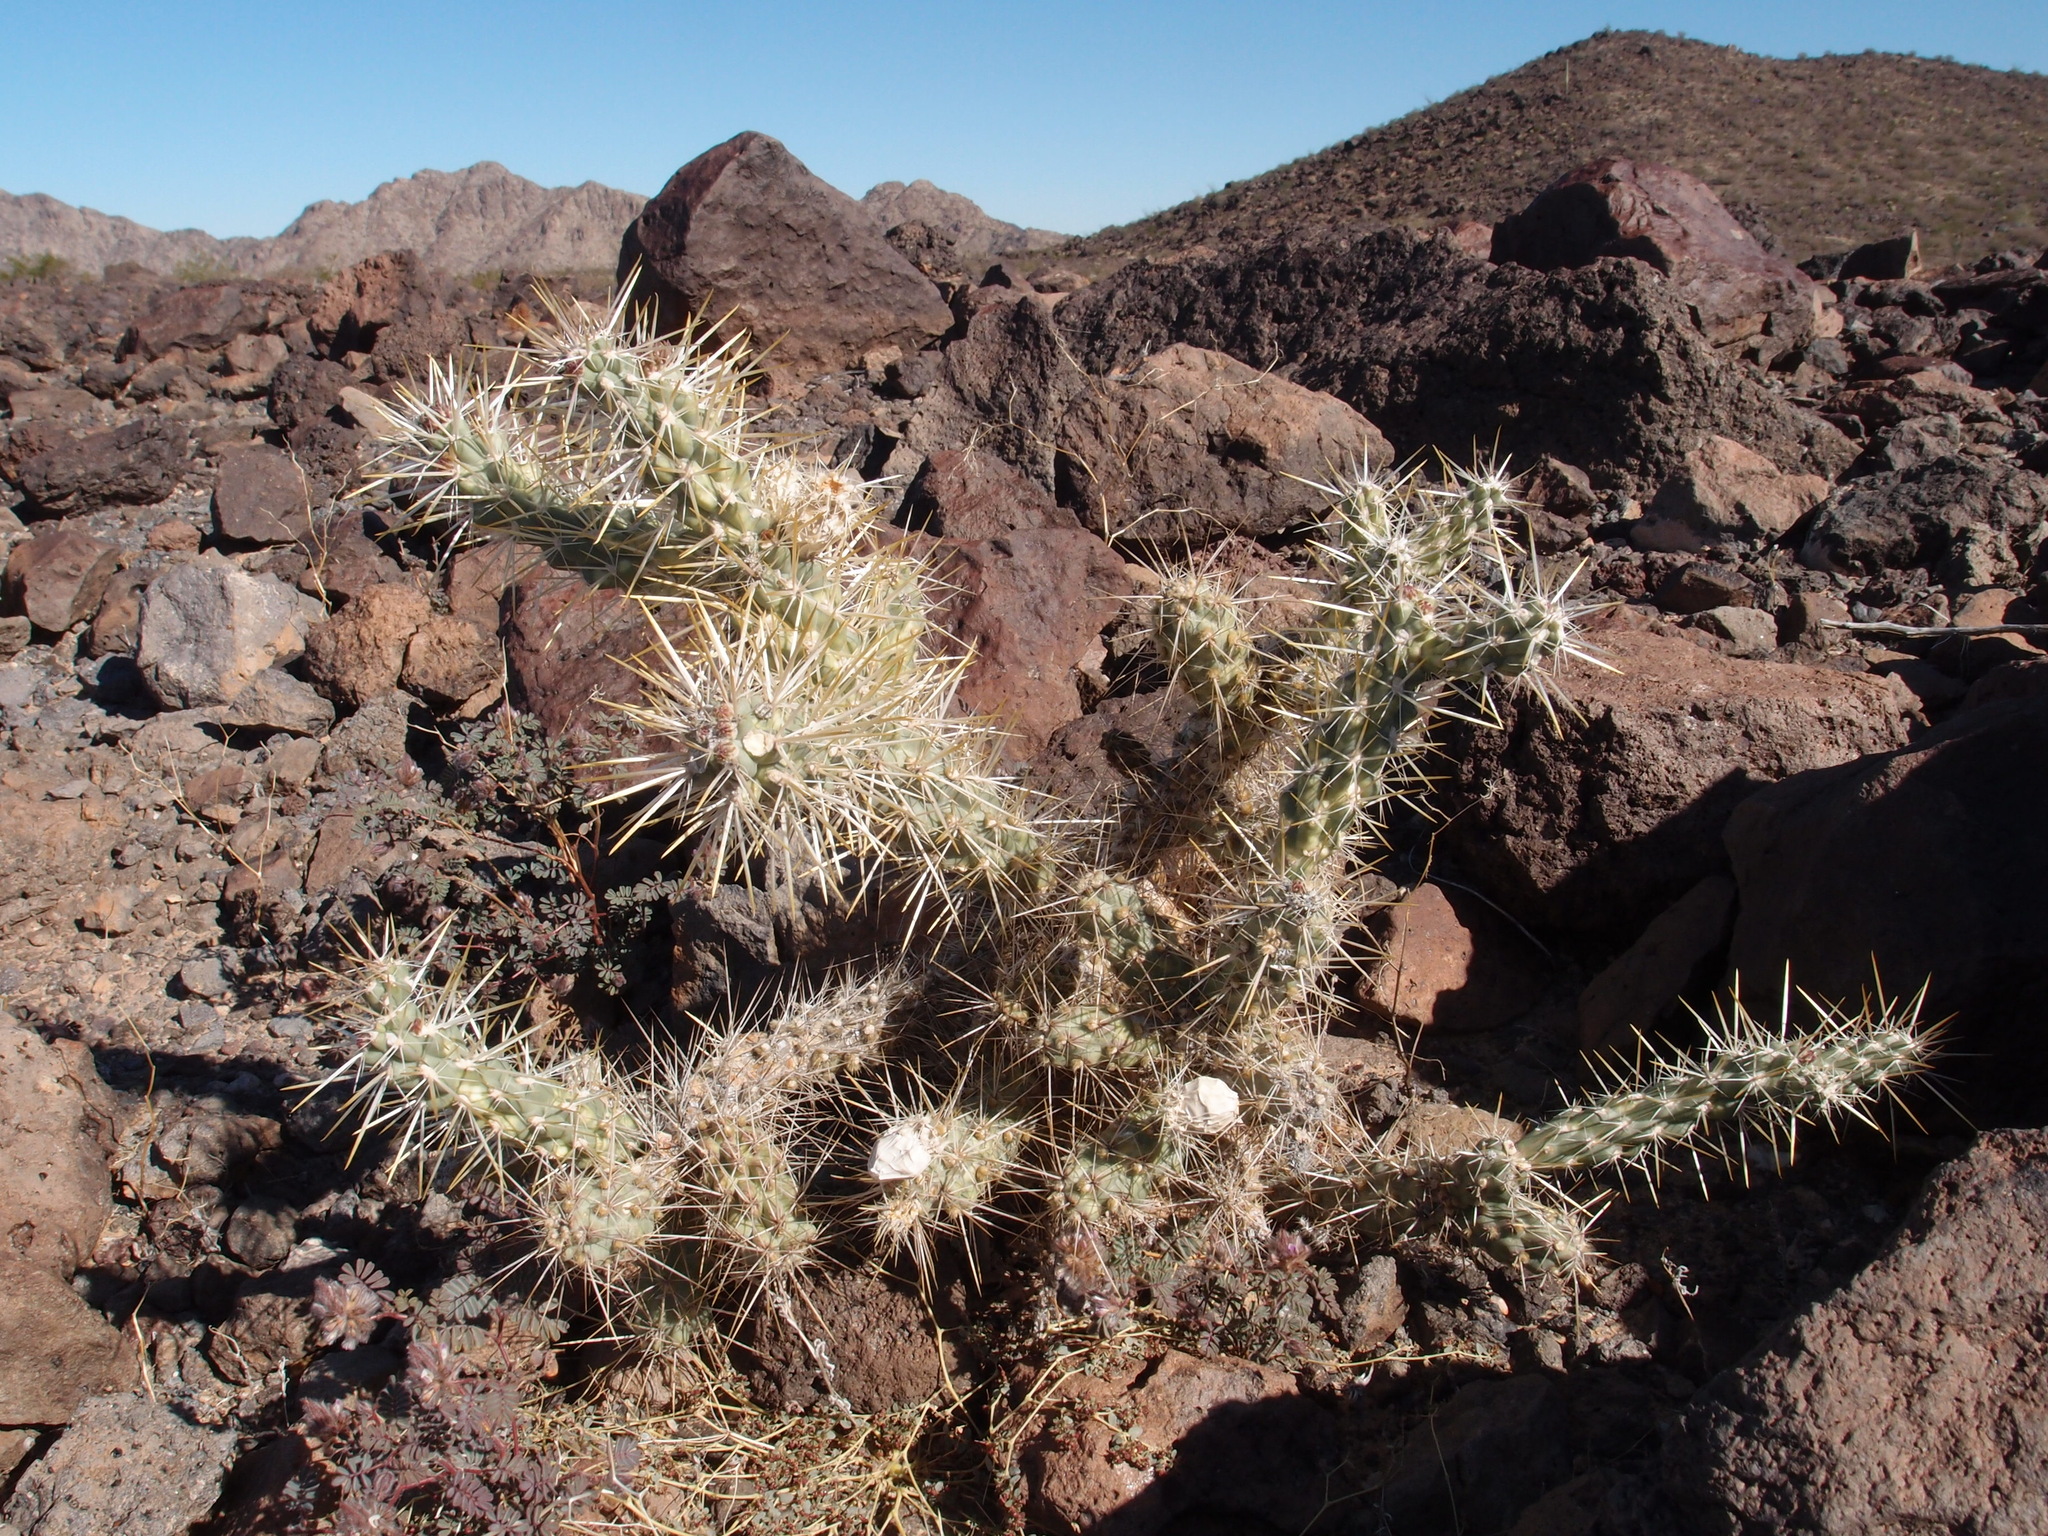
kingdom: Plantae
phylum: Tracheophyta
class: Magnoliopsida
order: Caryophyllales
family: Cactaceae
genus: Cylindropuntia
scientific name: Cylindropuntia fulgida
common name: Jumping cholla
